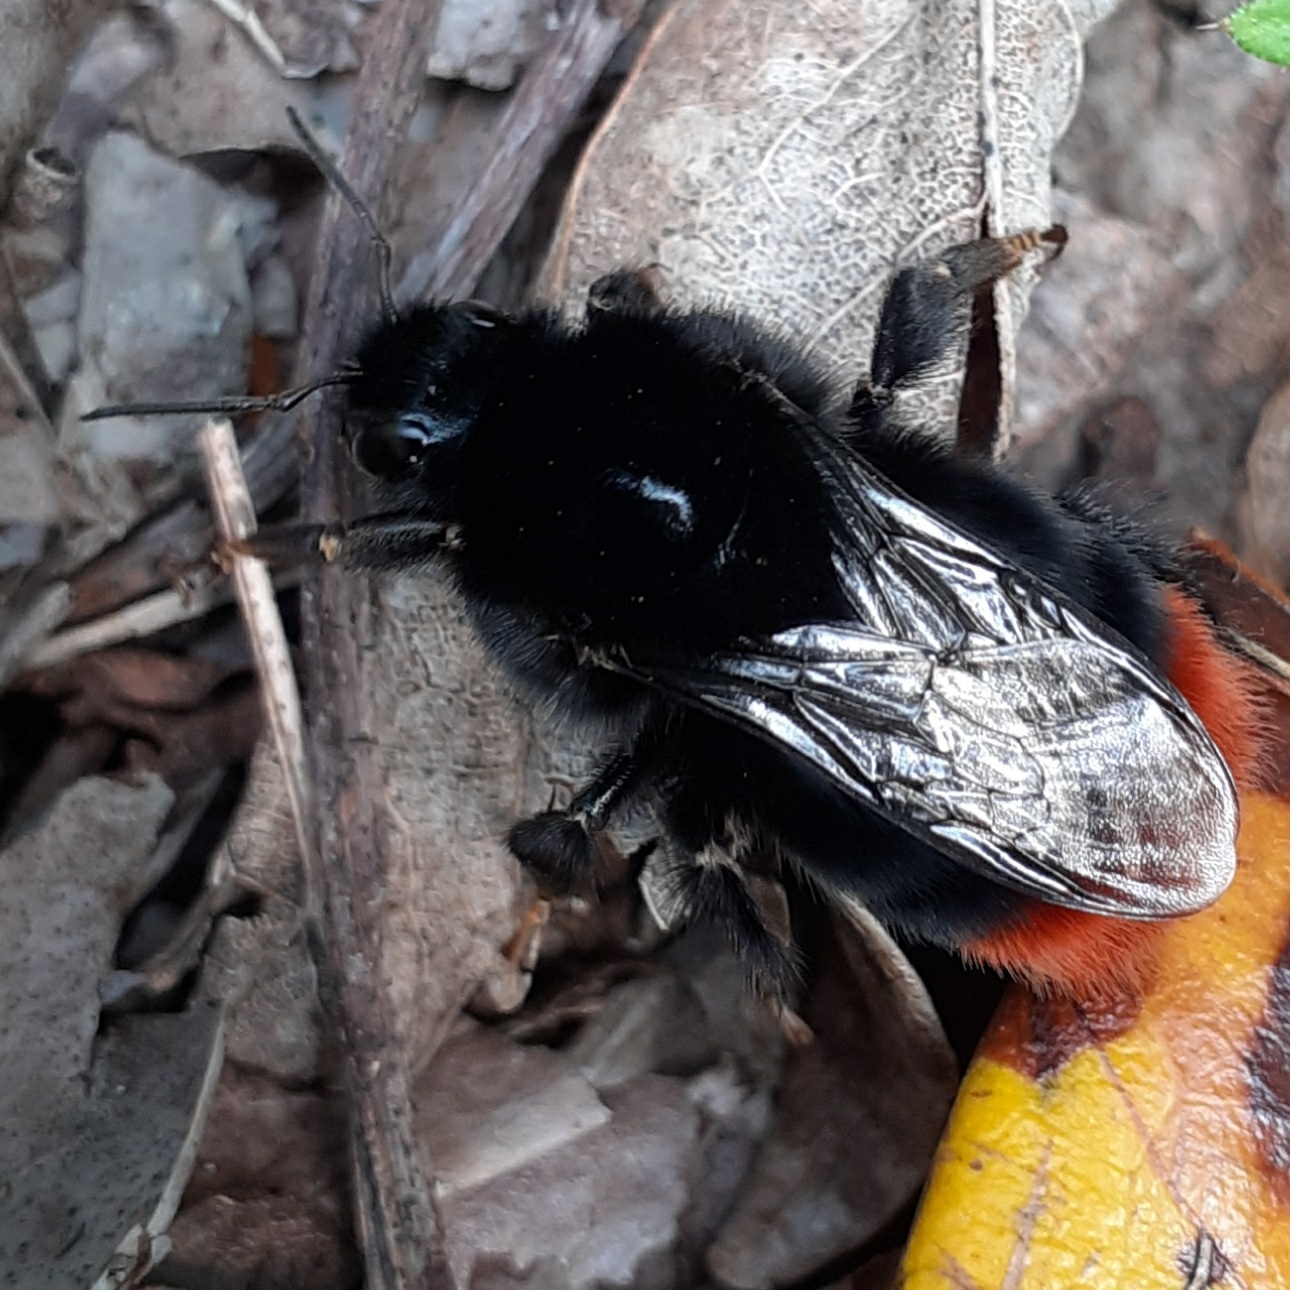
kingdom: Animalia
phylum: Arthropoda
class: Insecta
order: Hymenoptera
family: Apidae
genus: Bombus
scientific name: Bombus lapidarius
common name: Large red-tailed humble-bee
